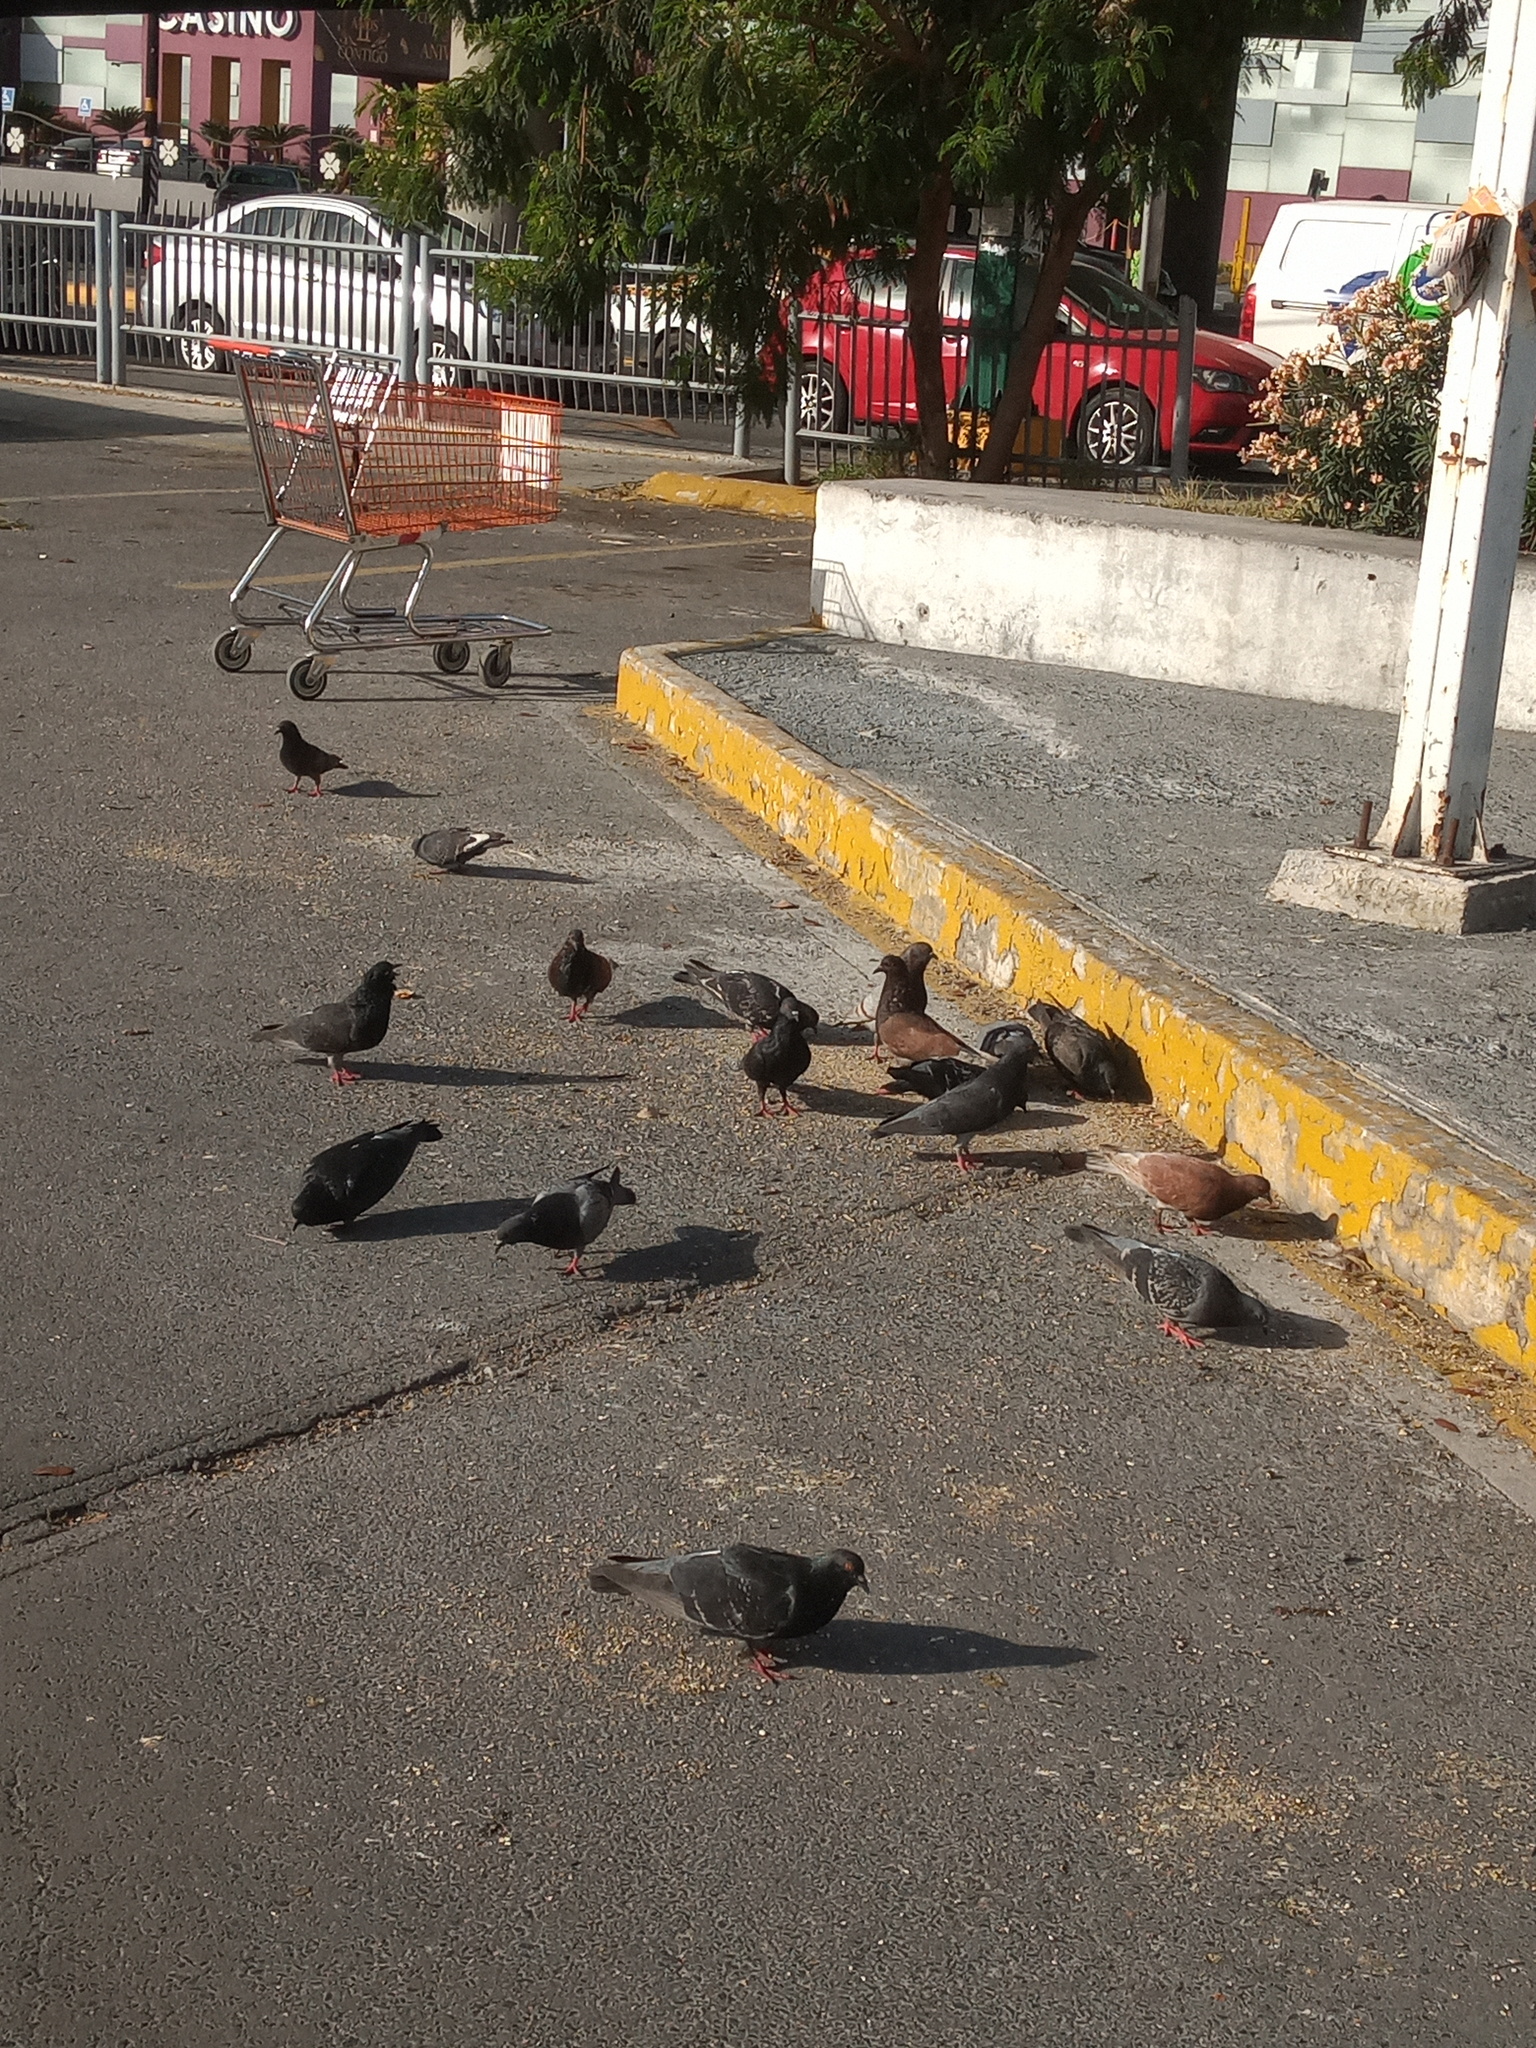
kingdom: Animalia
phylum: Chordata
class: Aves
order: Columbiformes
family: Columbidae
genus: Columba
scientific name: Columba livia
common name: Rock pigeon
